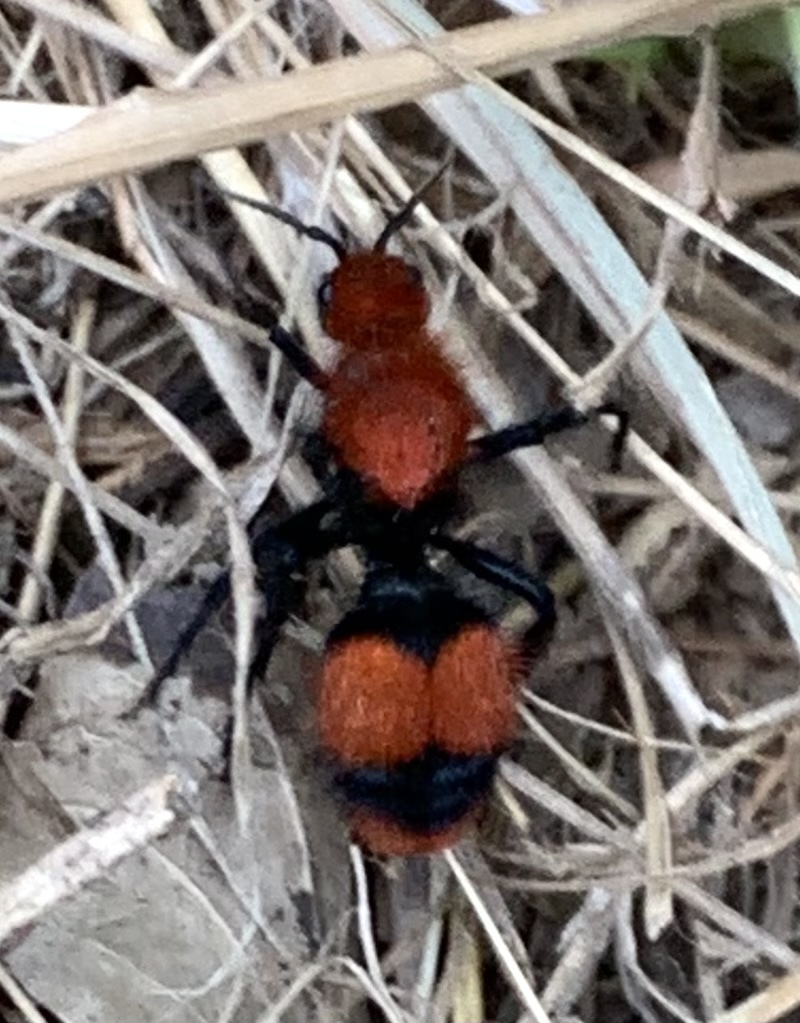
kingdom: Animalia
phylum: Arthropoda
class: Insecta
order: Hymenoptera
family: Mutillidae
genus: Dasymutilla
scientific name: Dasymutilla occidentalis
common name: Common eastern velvet ant
